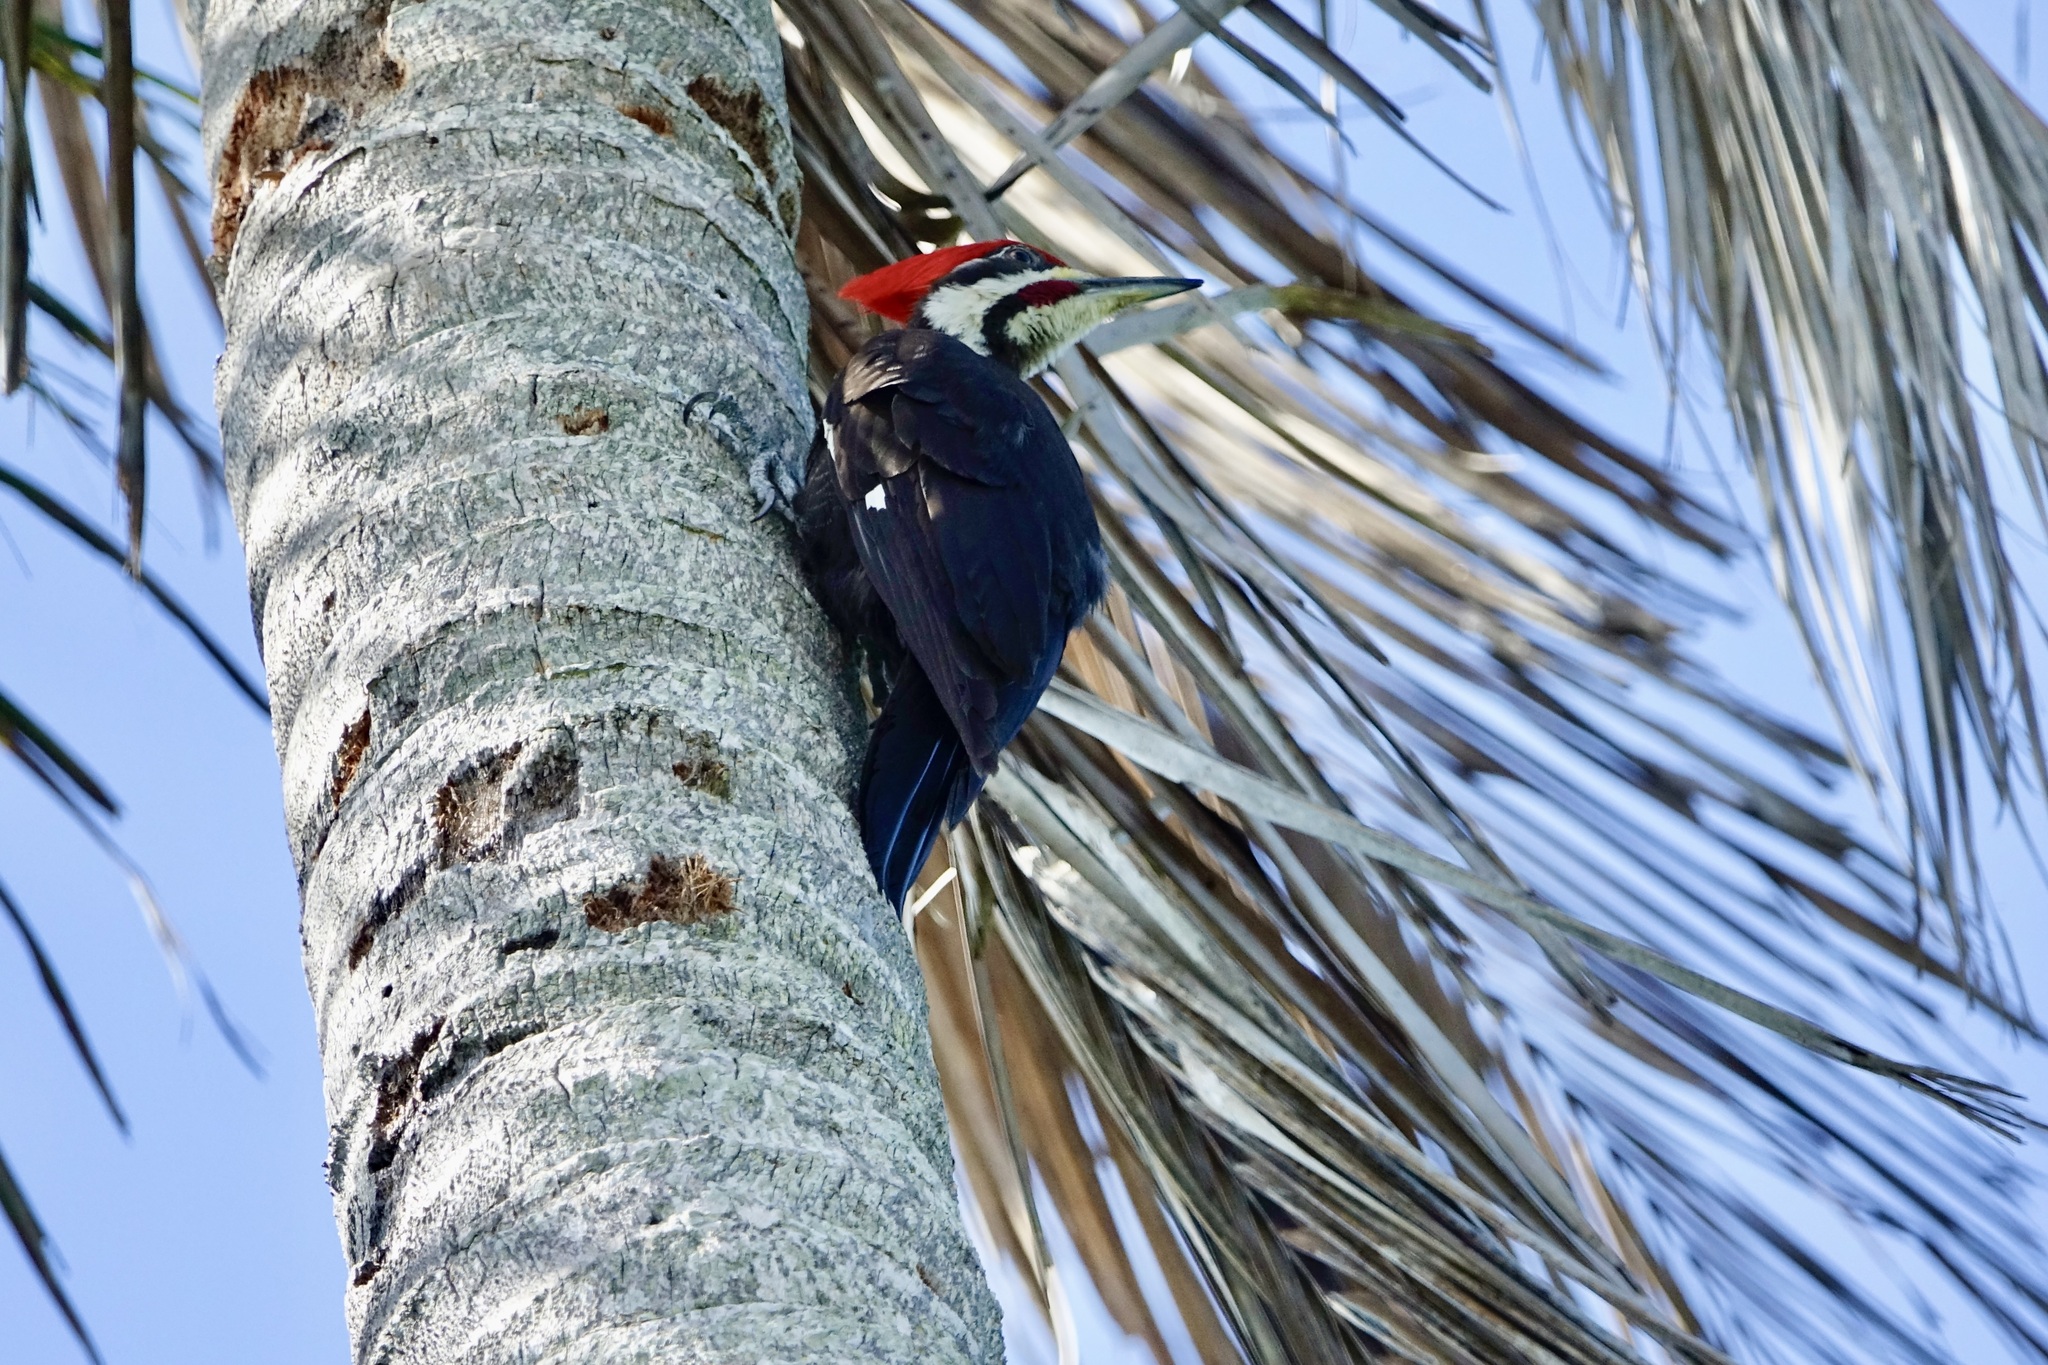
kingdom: Animalia
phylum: Chordata
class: Aves
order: Piciformes
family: Picidae
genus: Dryocopus
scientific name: Dryocopus pileatus
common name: Pileated woodpecker
